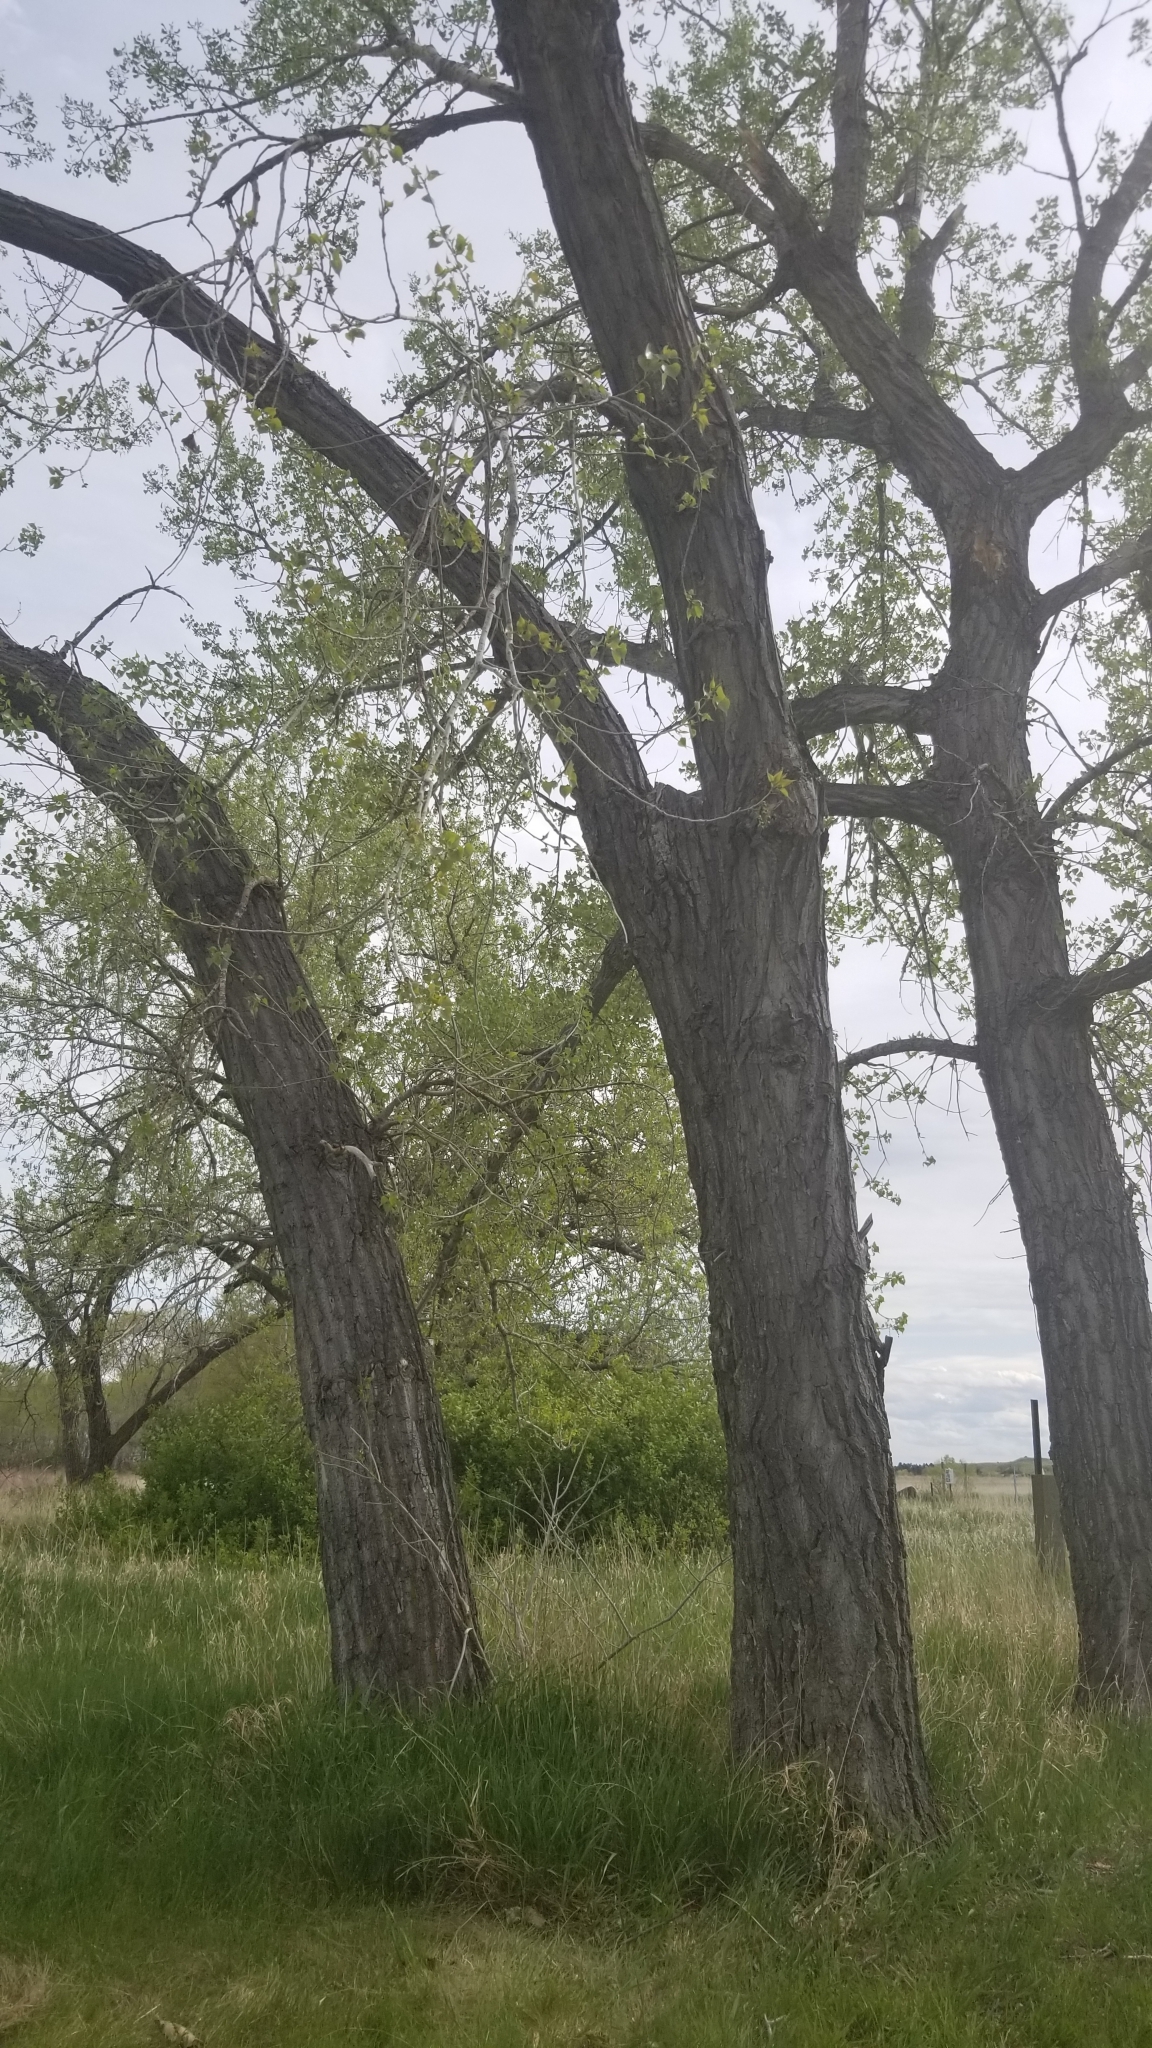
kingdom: Plantae
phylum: Tracheophyta
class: Magnoliopsida
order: Malpighiales
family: Salicaceae
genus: Populus
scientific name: Populus deltoides
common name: Eastern cottonwood
